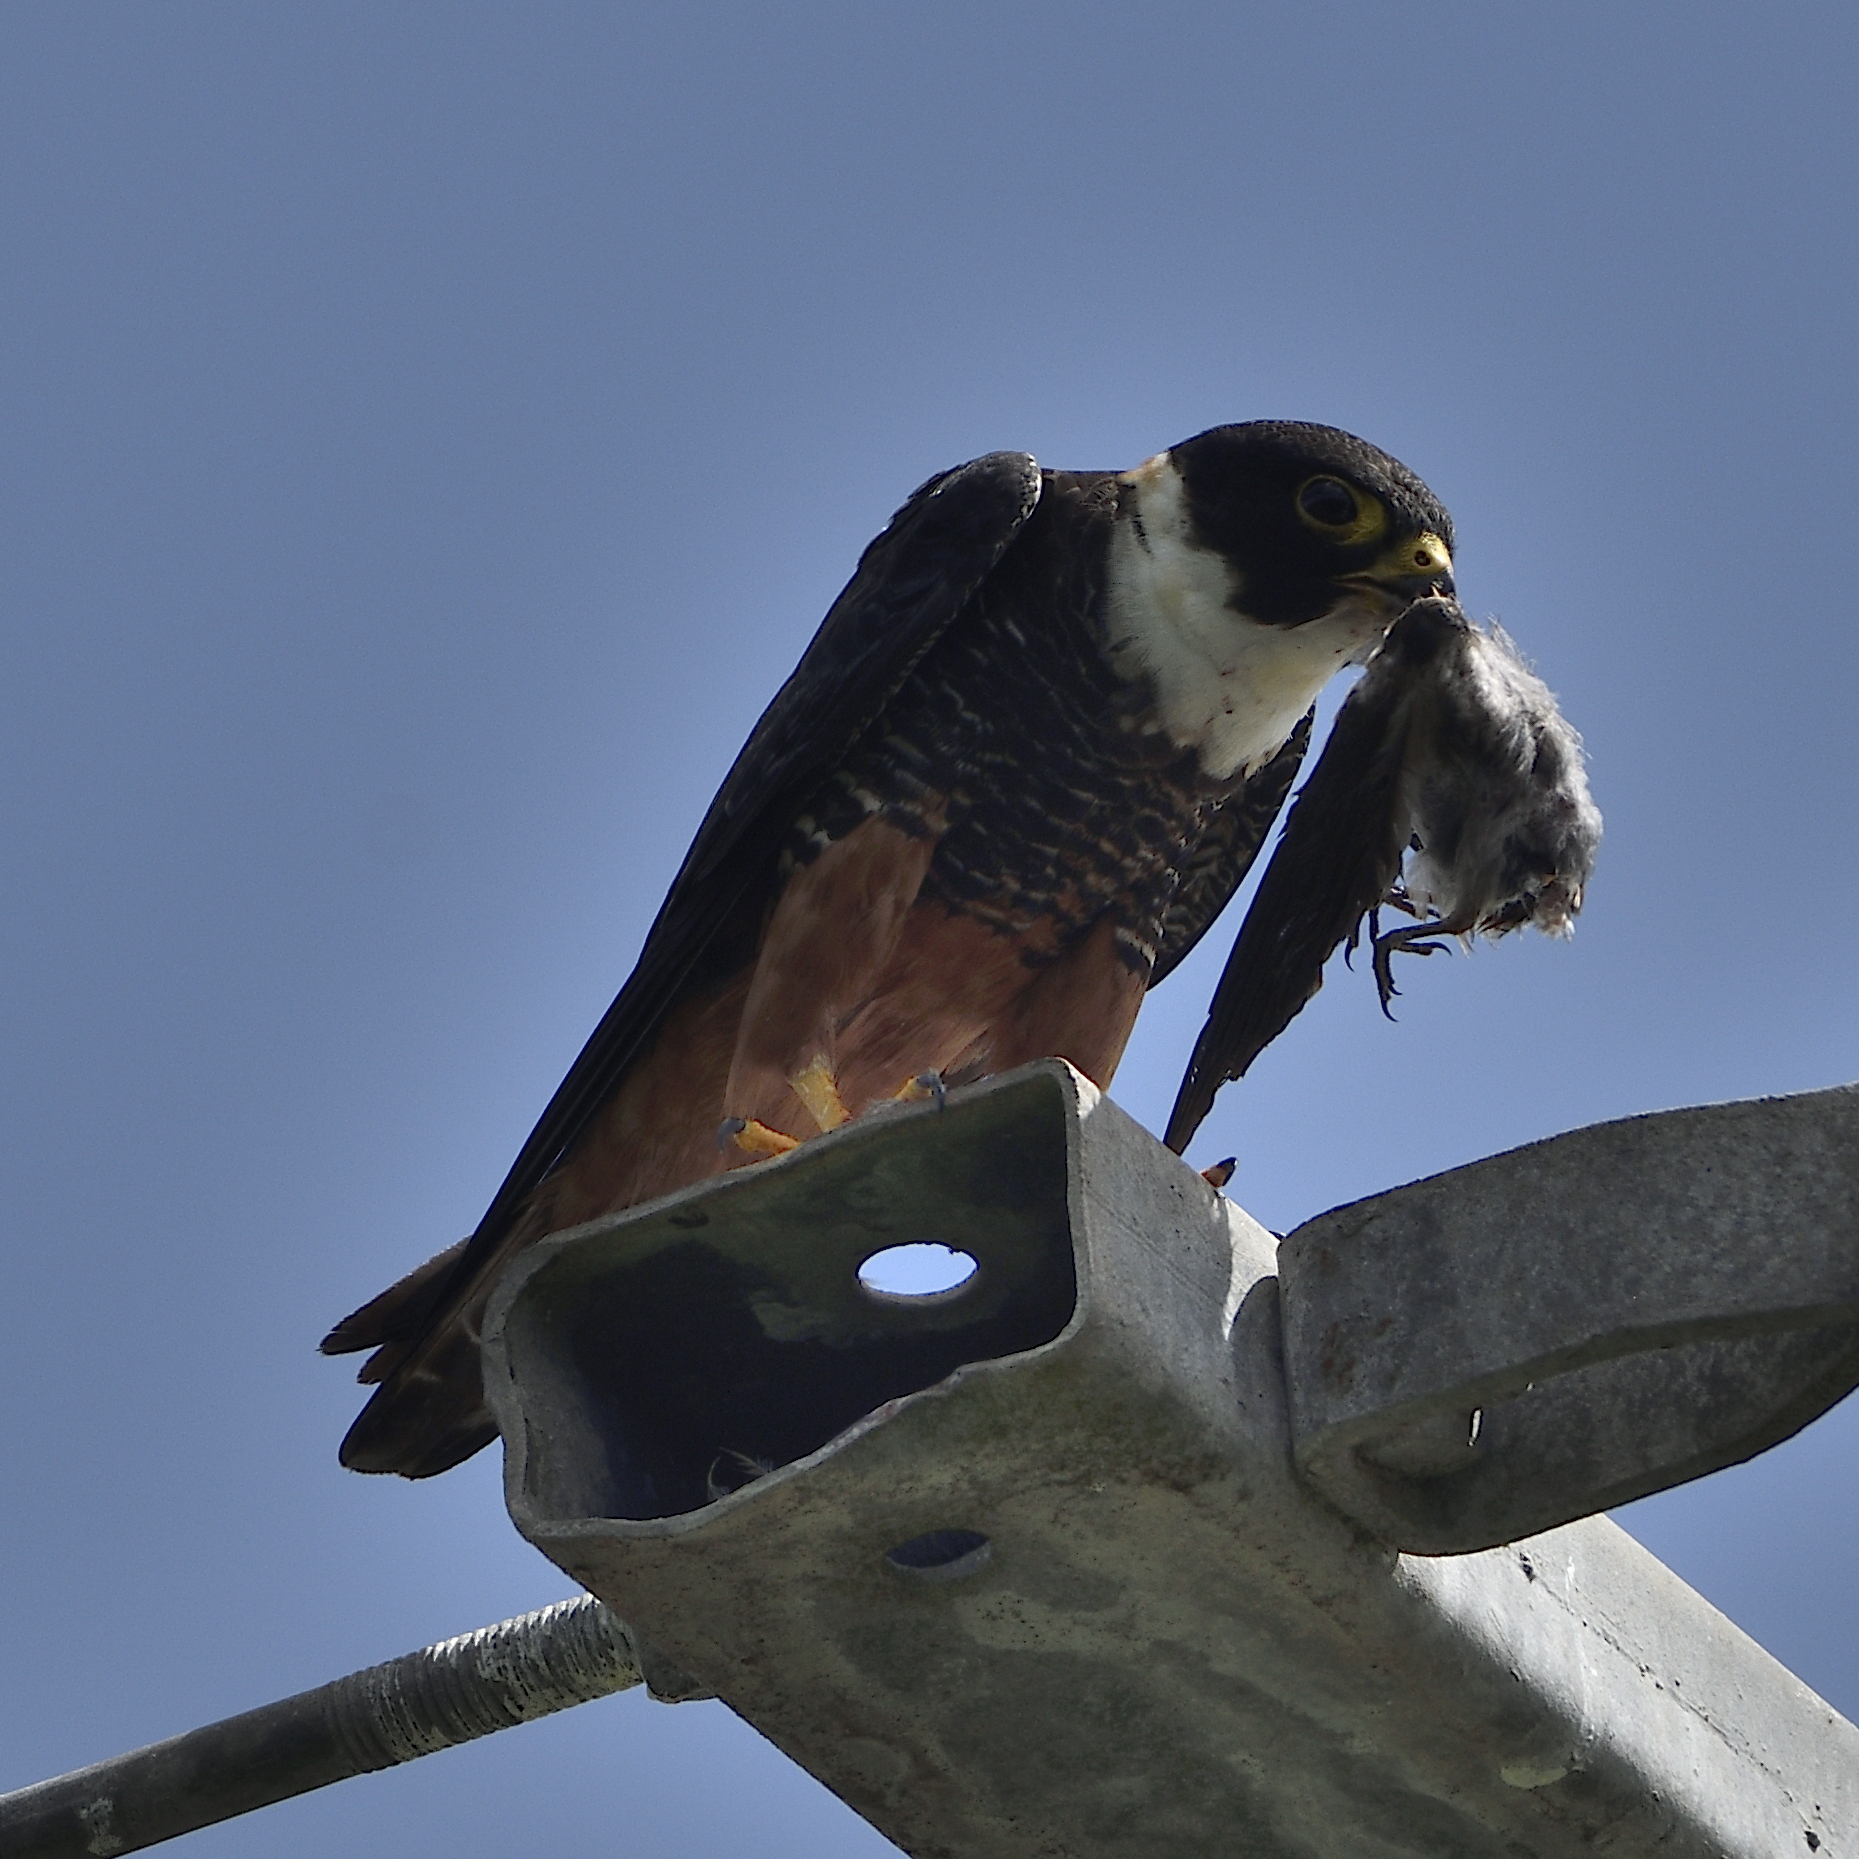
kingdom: Animalia
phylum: Chordata
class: Aves
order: Falconiformes
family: Falconidae
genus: Falco
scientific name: Falco rufigularis
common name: Bat falcon
